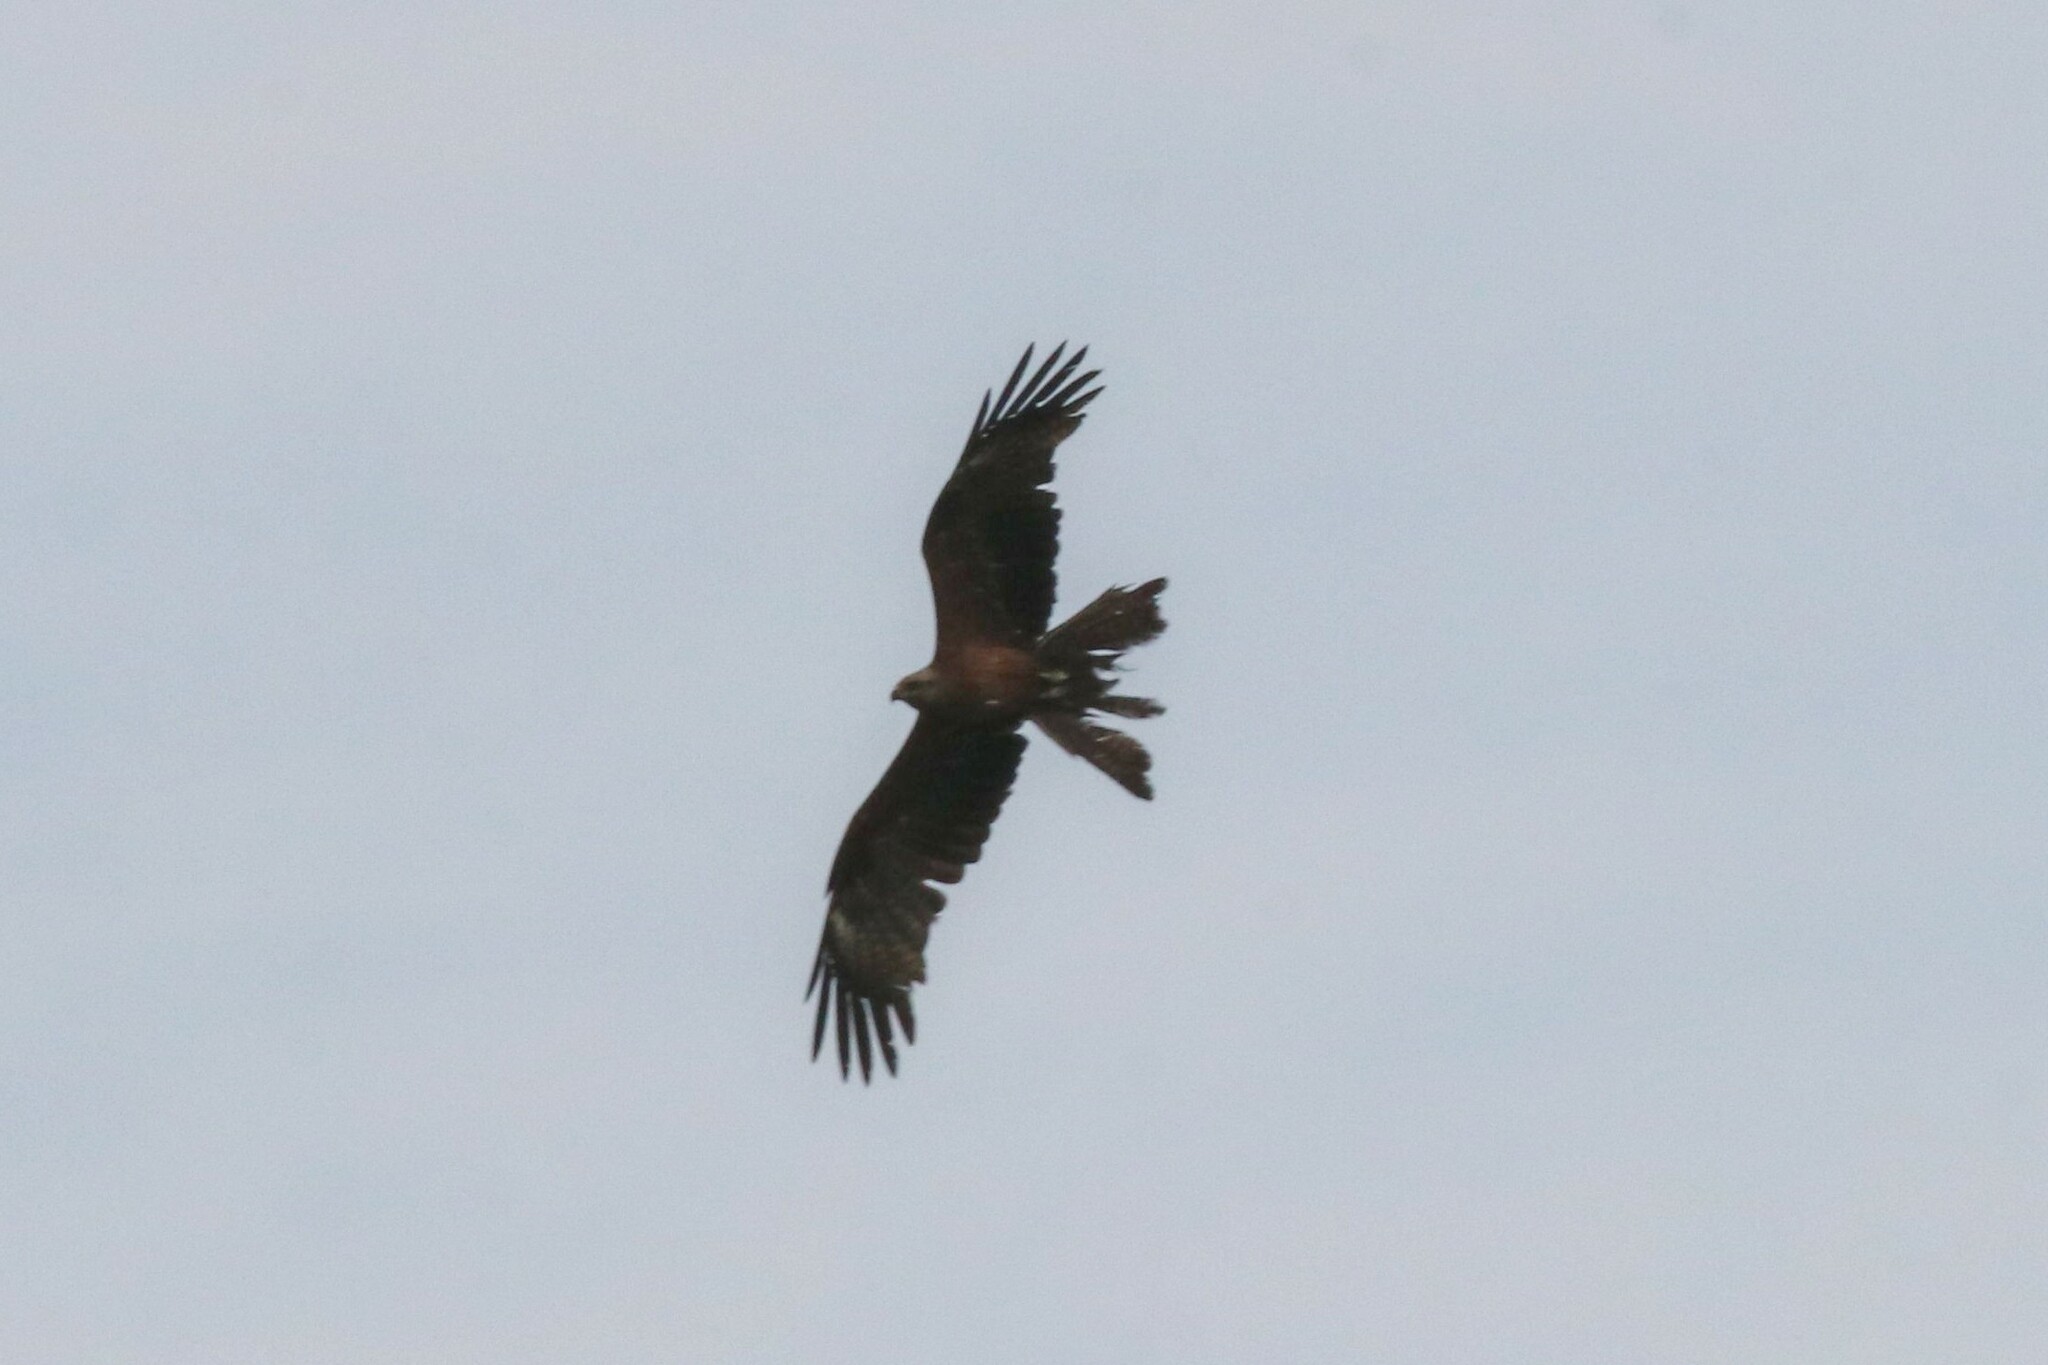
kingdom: Animalia
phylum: Chordata
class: Aves
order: Accipitriformes
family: Accipitridae
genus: Milvus
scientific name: Milvus migrans
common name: Black kite
